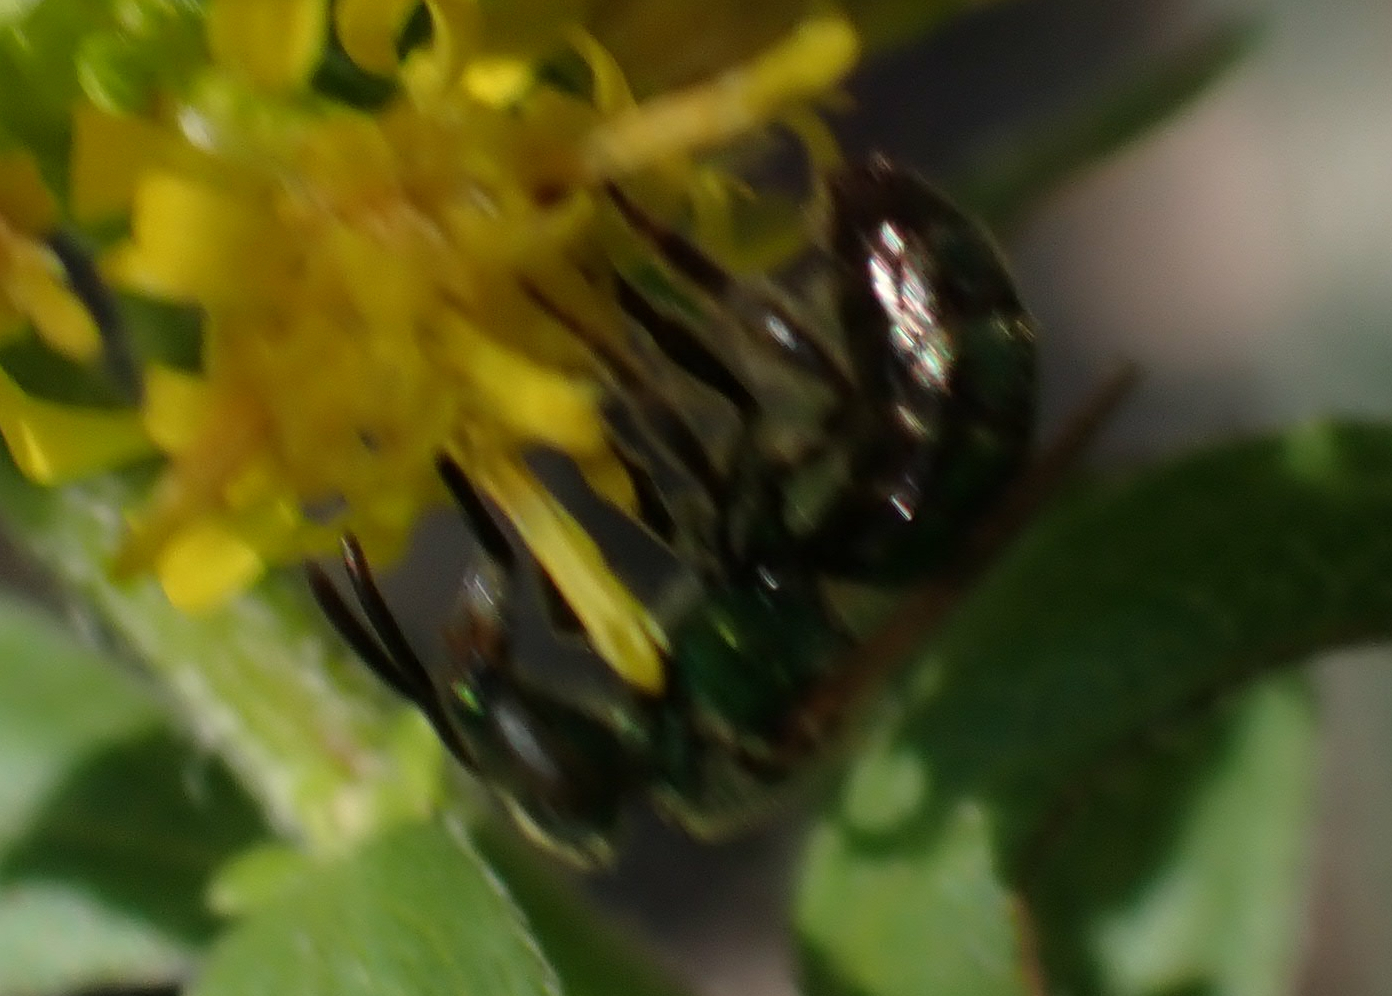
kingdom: Animalia
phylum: Arthropoda
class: Insecta
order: Hymenoptera
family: Halictidae
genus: Augochlorella
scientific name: Augochlorella aurata
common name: Golden sweat bee
